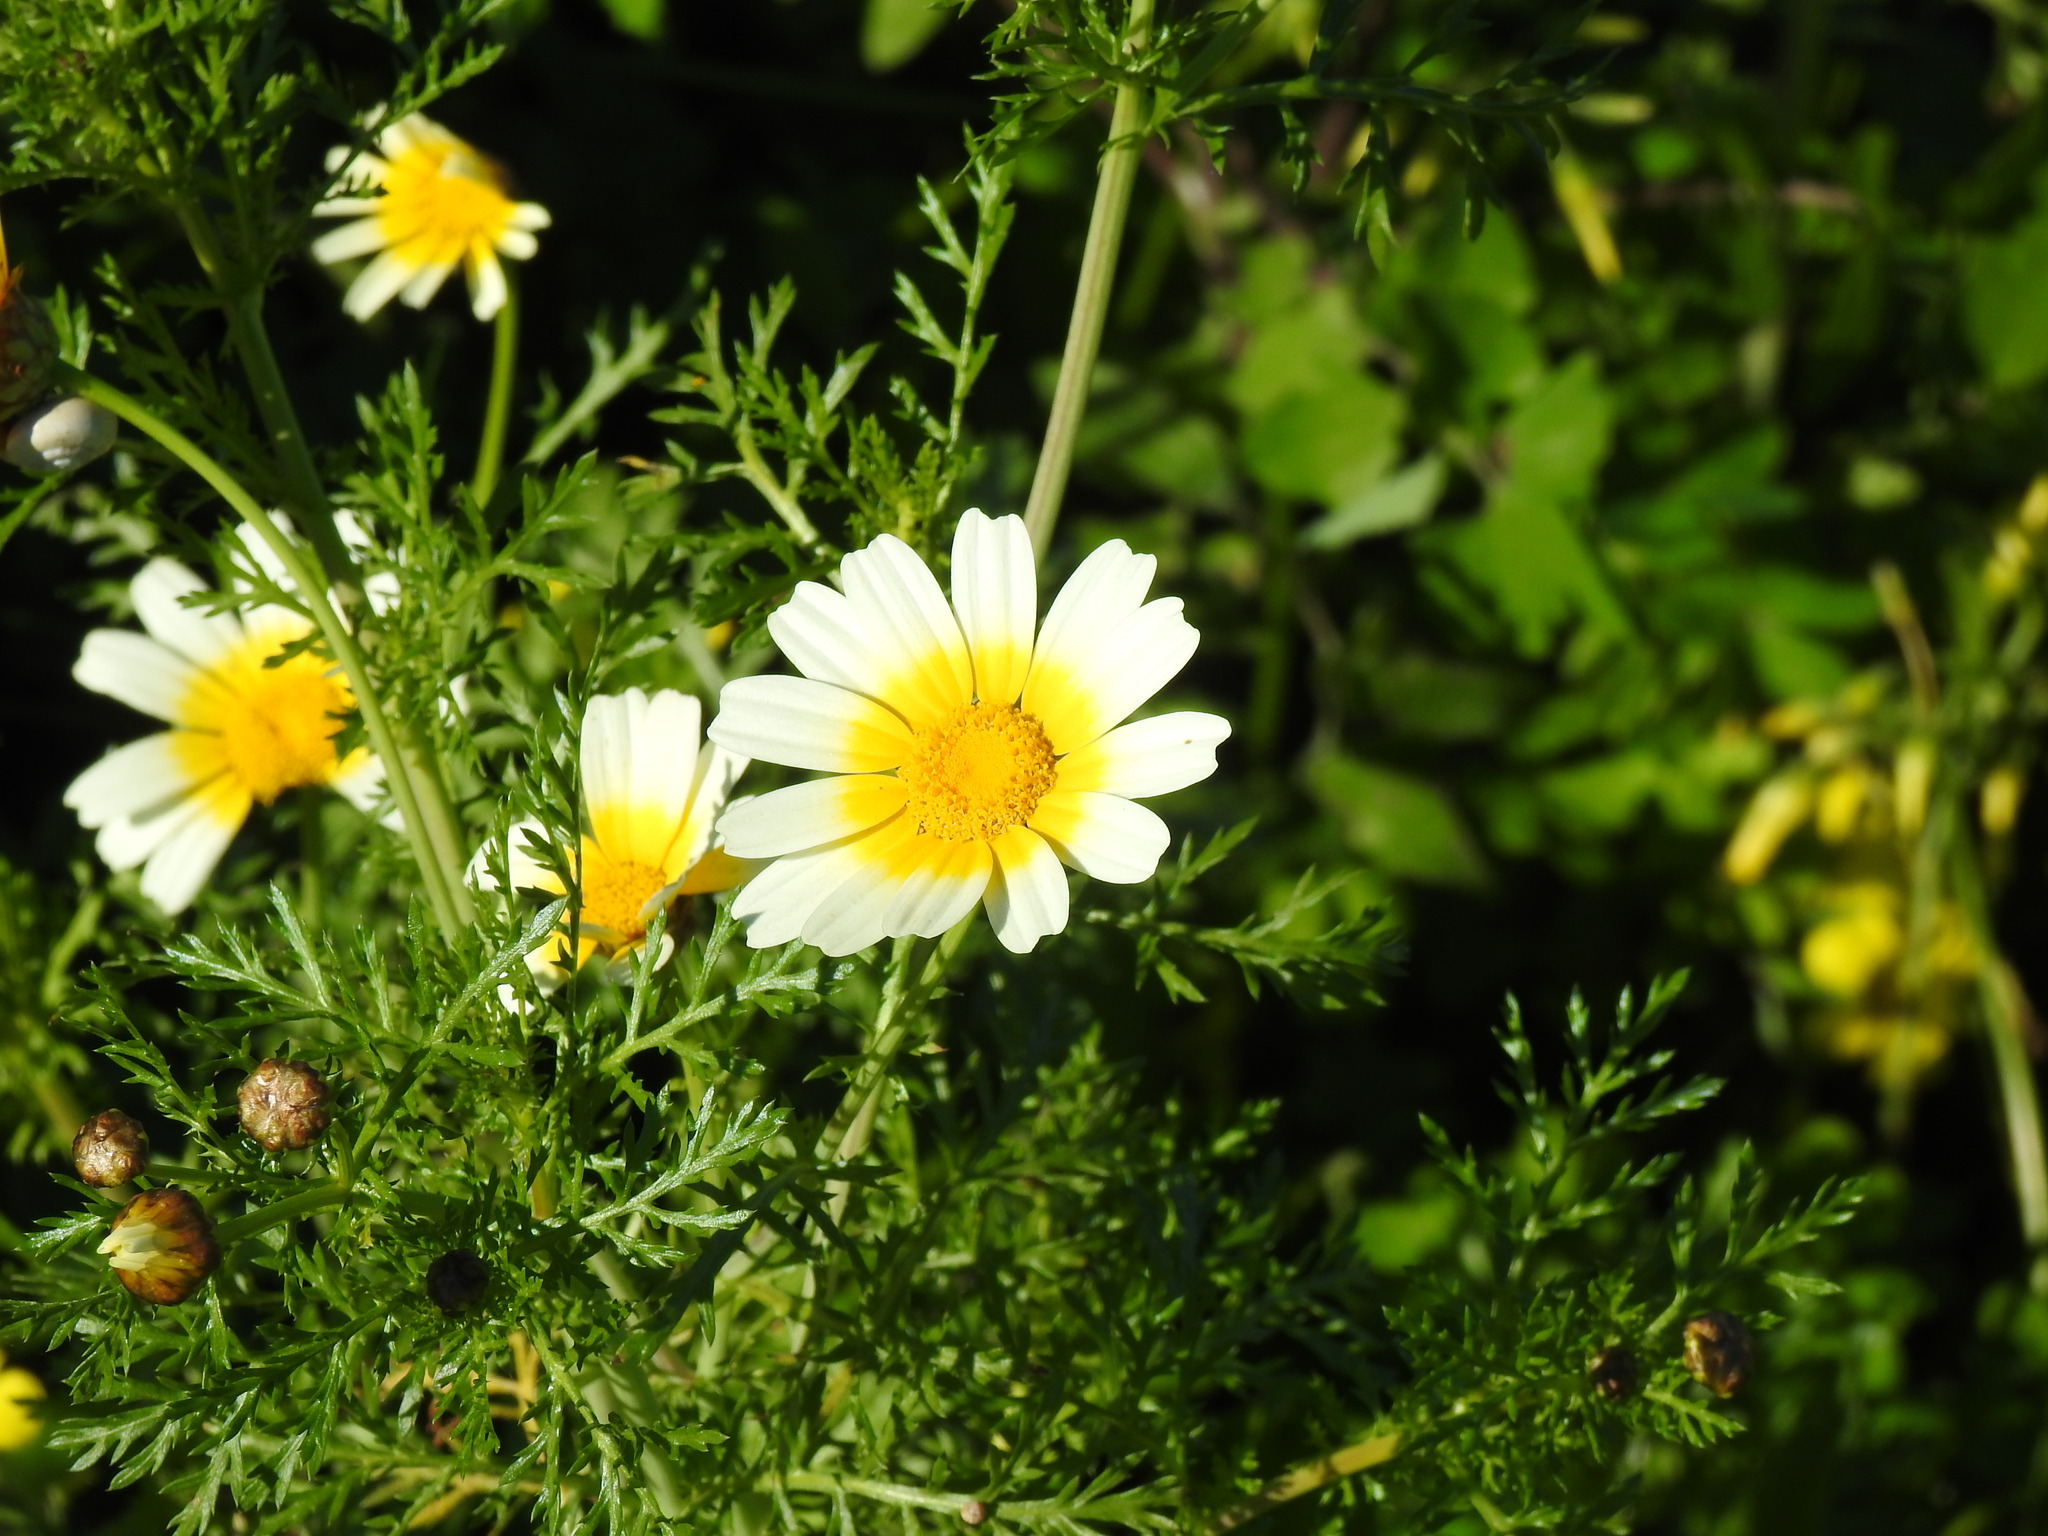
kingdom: Plantae
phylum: Tracheophyta
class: Magnoliopsida
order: Asterales
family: Asteraceae
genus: Glebionis
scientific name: Glebionis coronaria
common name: Crowndaisy
